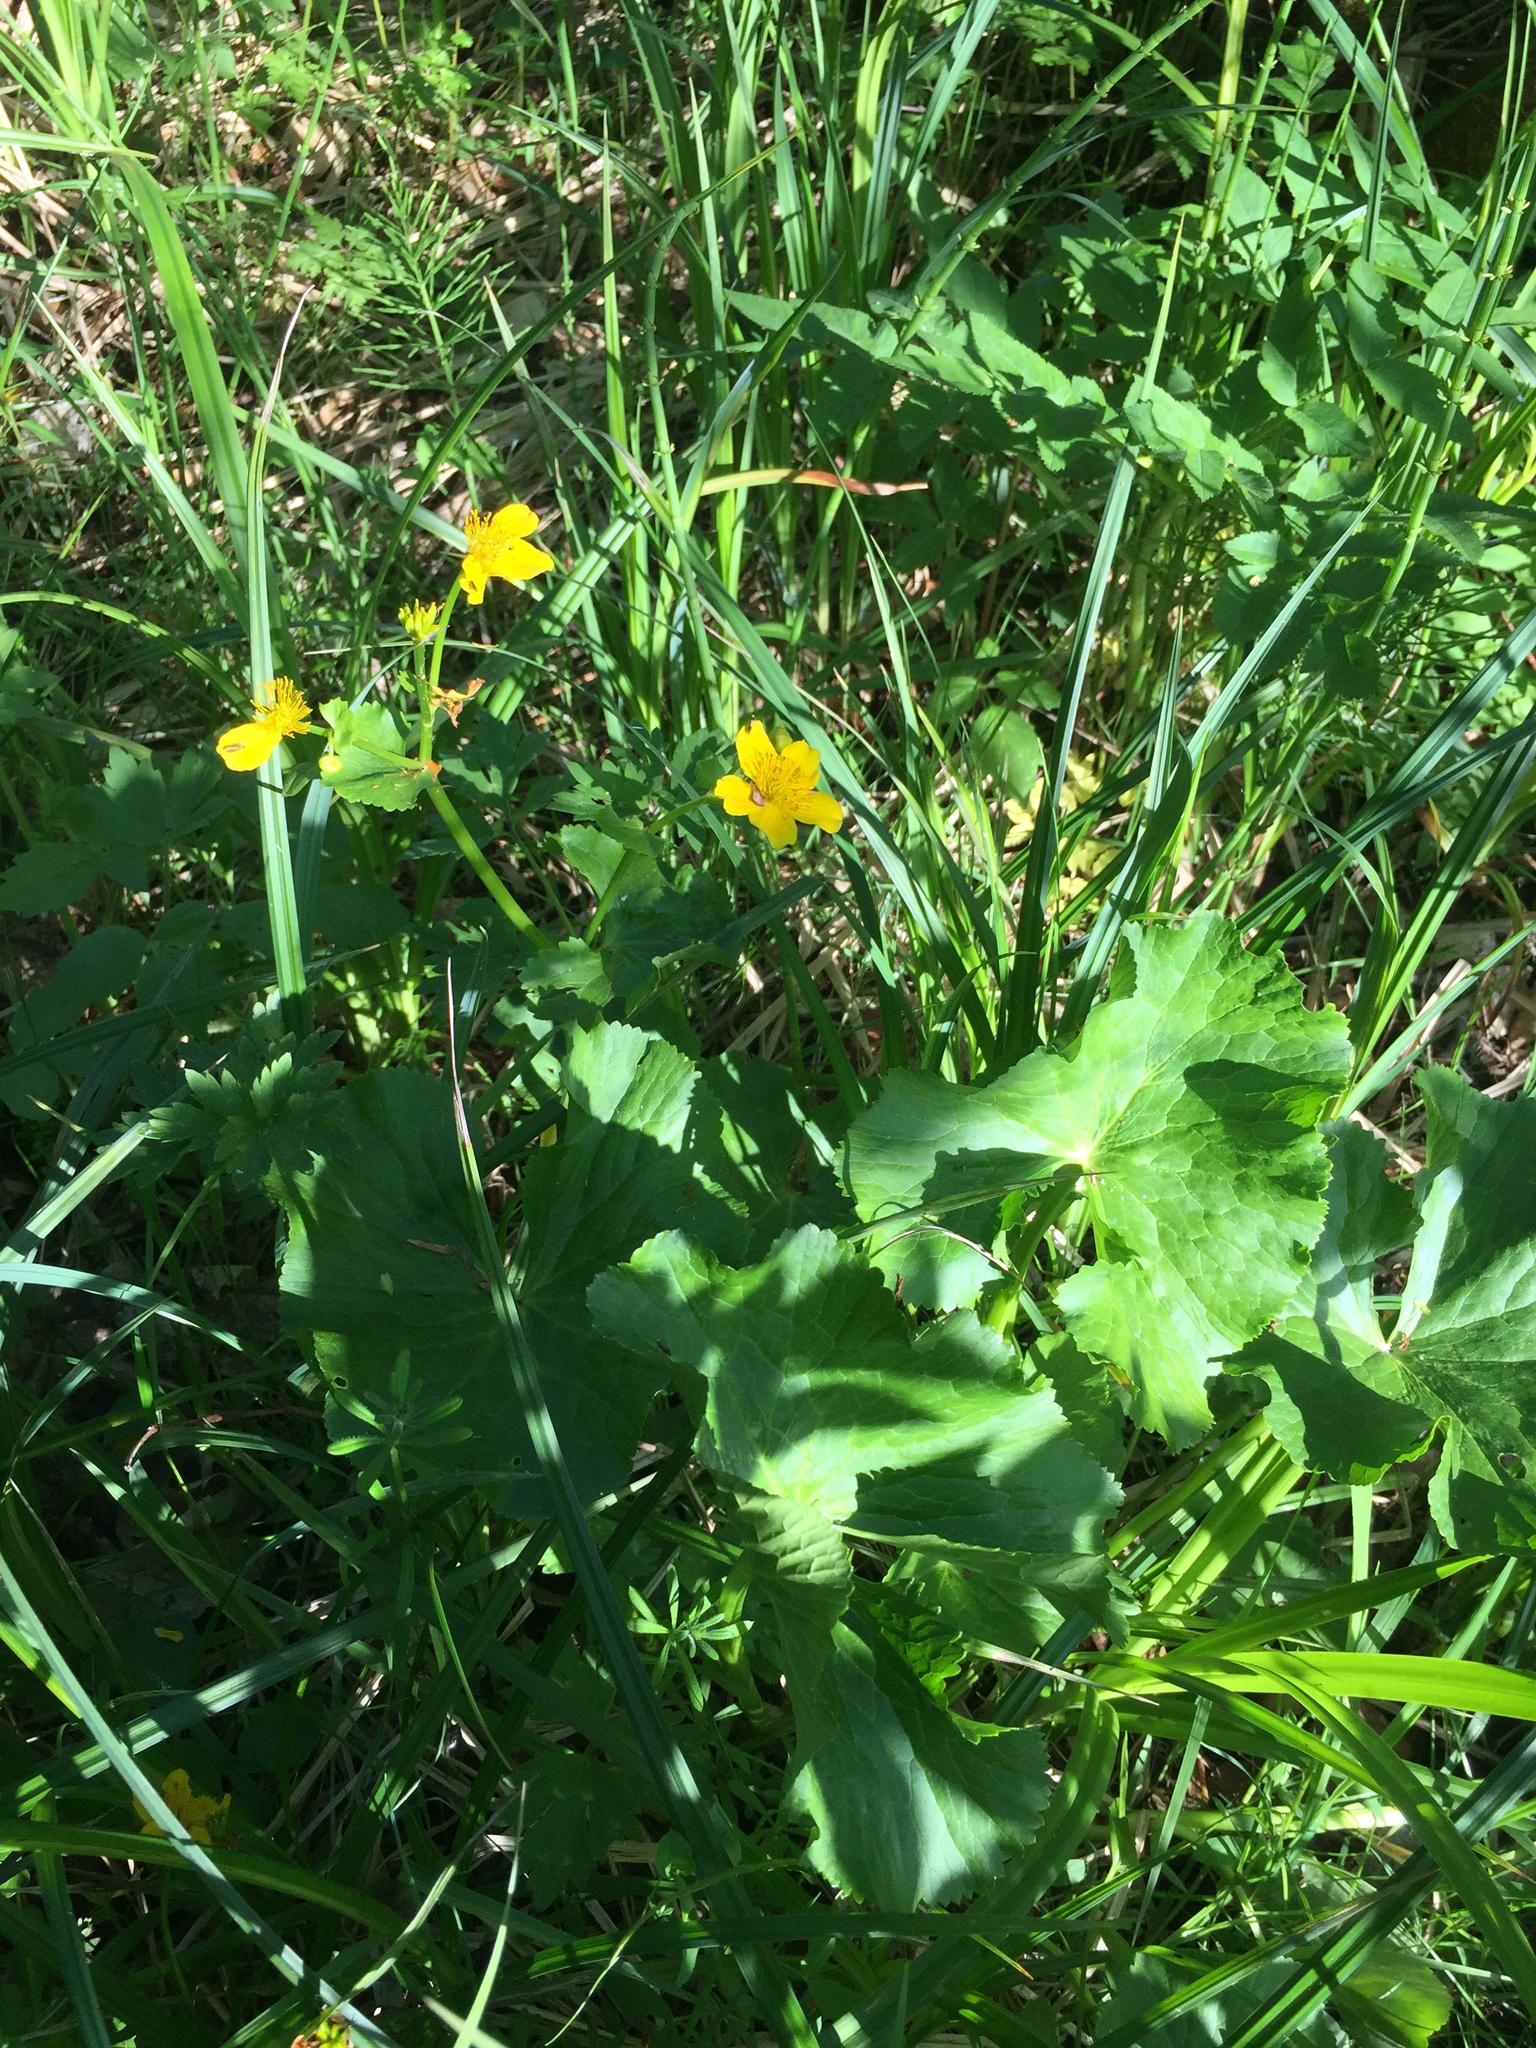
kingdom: Plantae
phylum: Tracheophyta
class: Magnoliopsida
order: Ranunculales
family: Ranunculaceae
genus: Caltha
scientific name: Caltha palustris
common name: Marsh marigold
